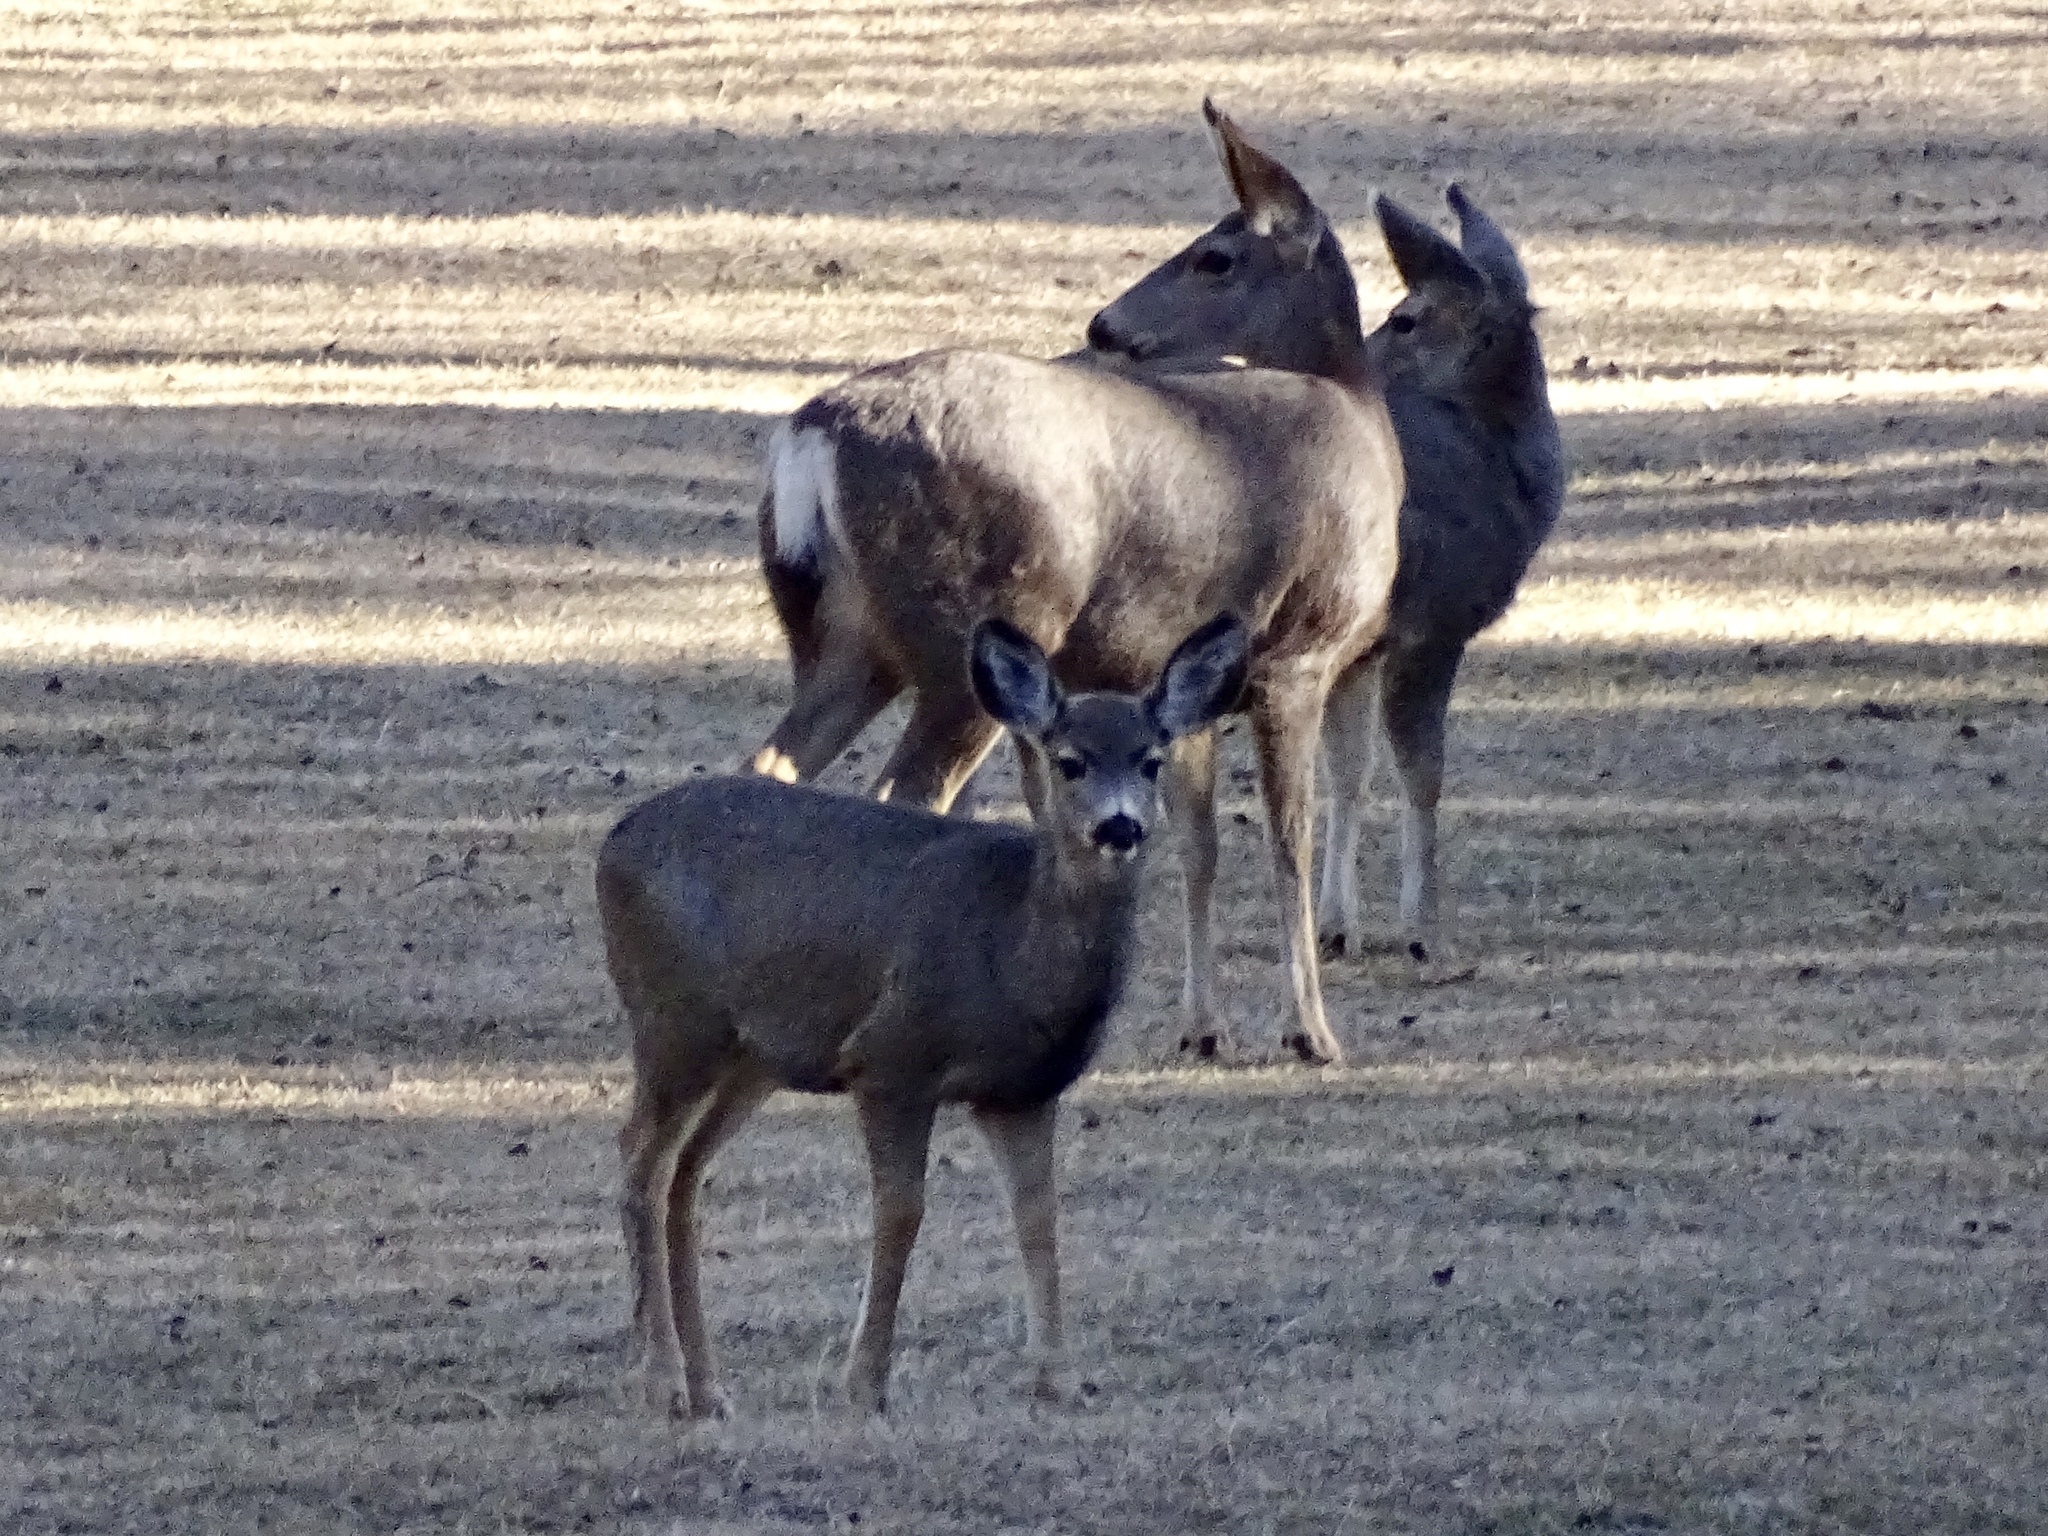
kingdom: Animalia
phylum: Chordata
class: Mammalia
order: Artiodactyla
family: Cervidae
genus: Odocoileus
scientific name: Odocoileus hemionus
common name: Mule deer
